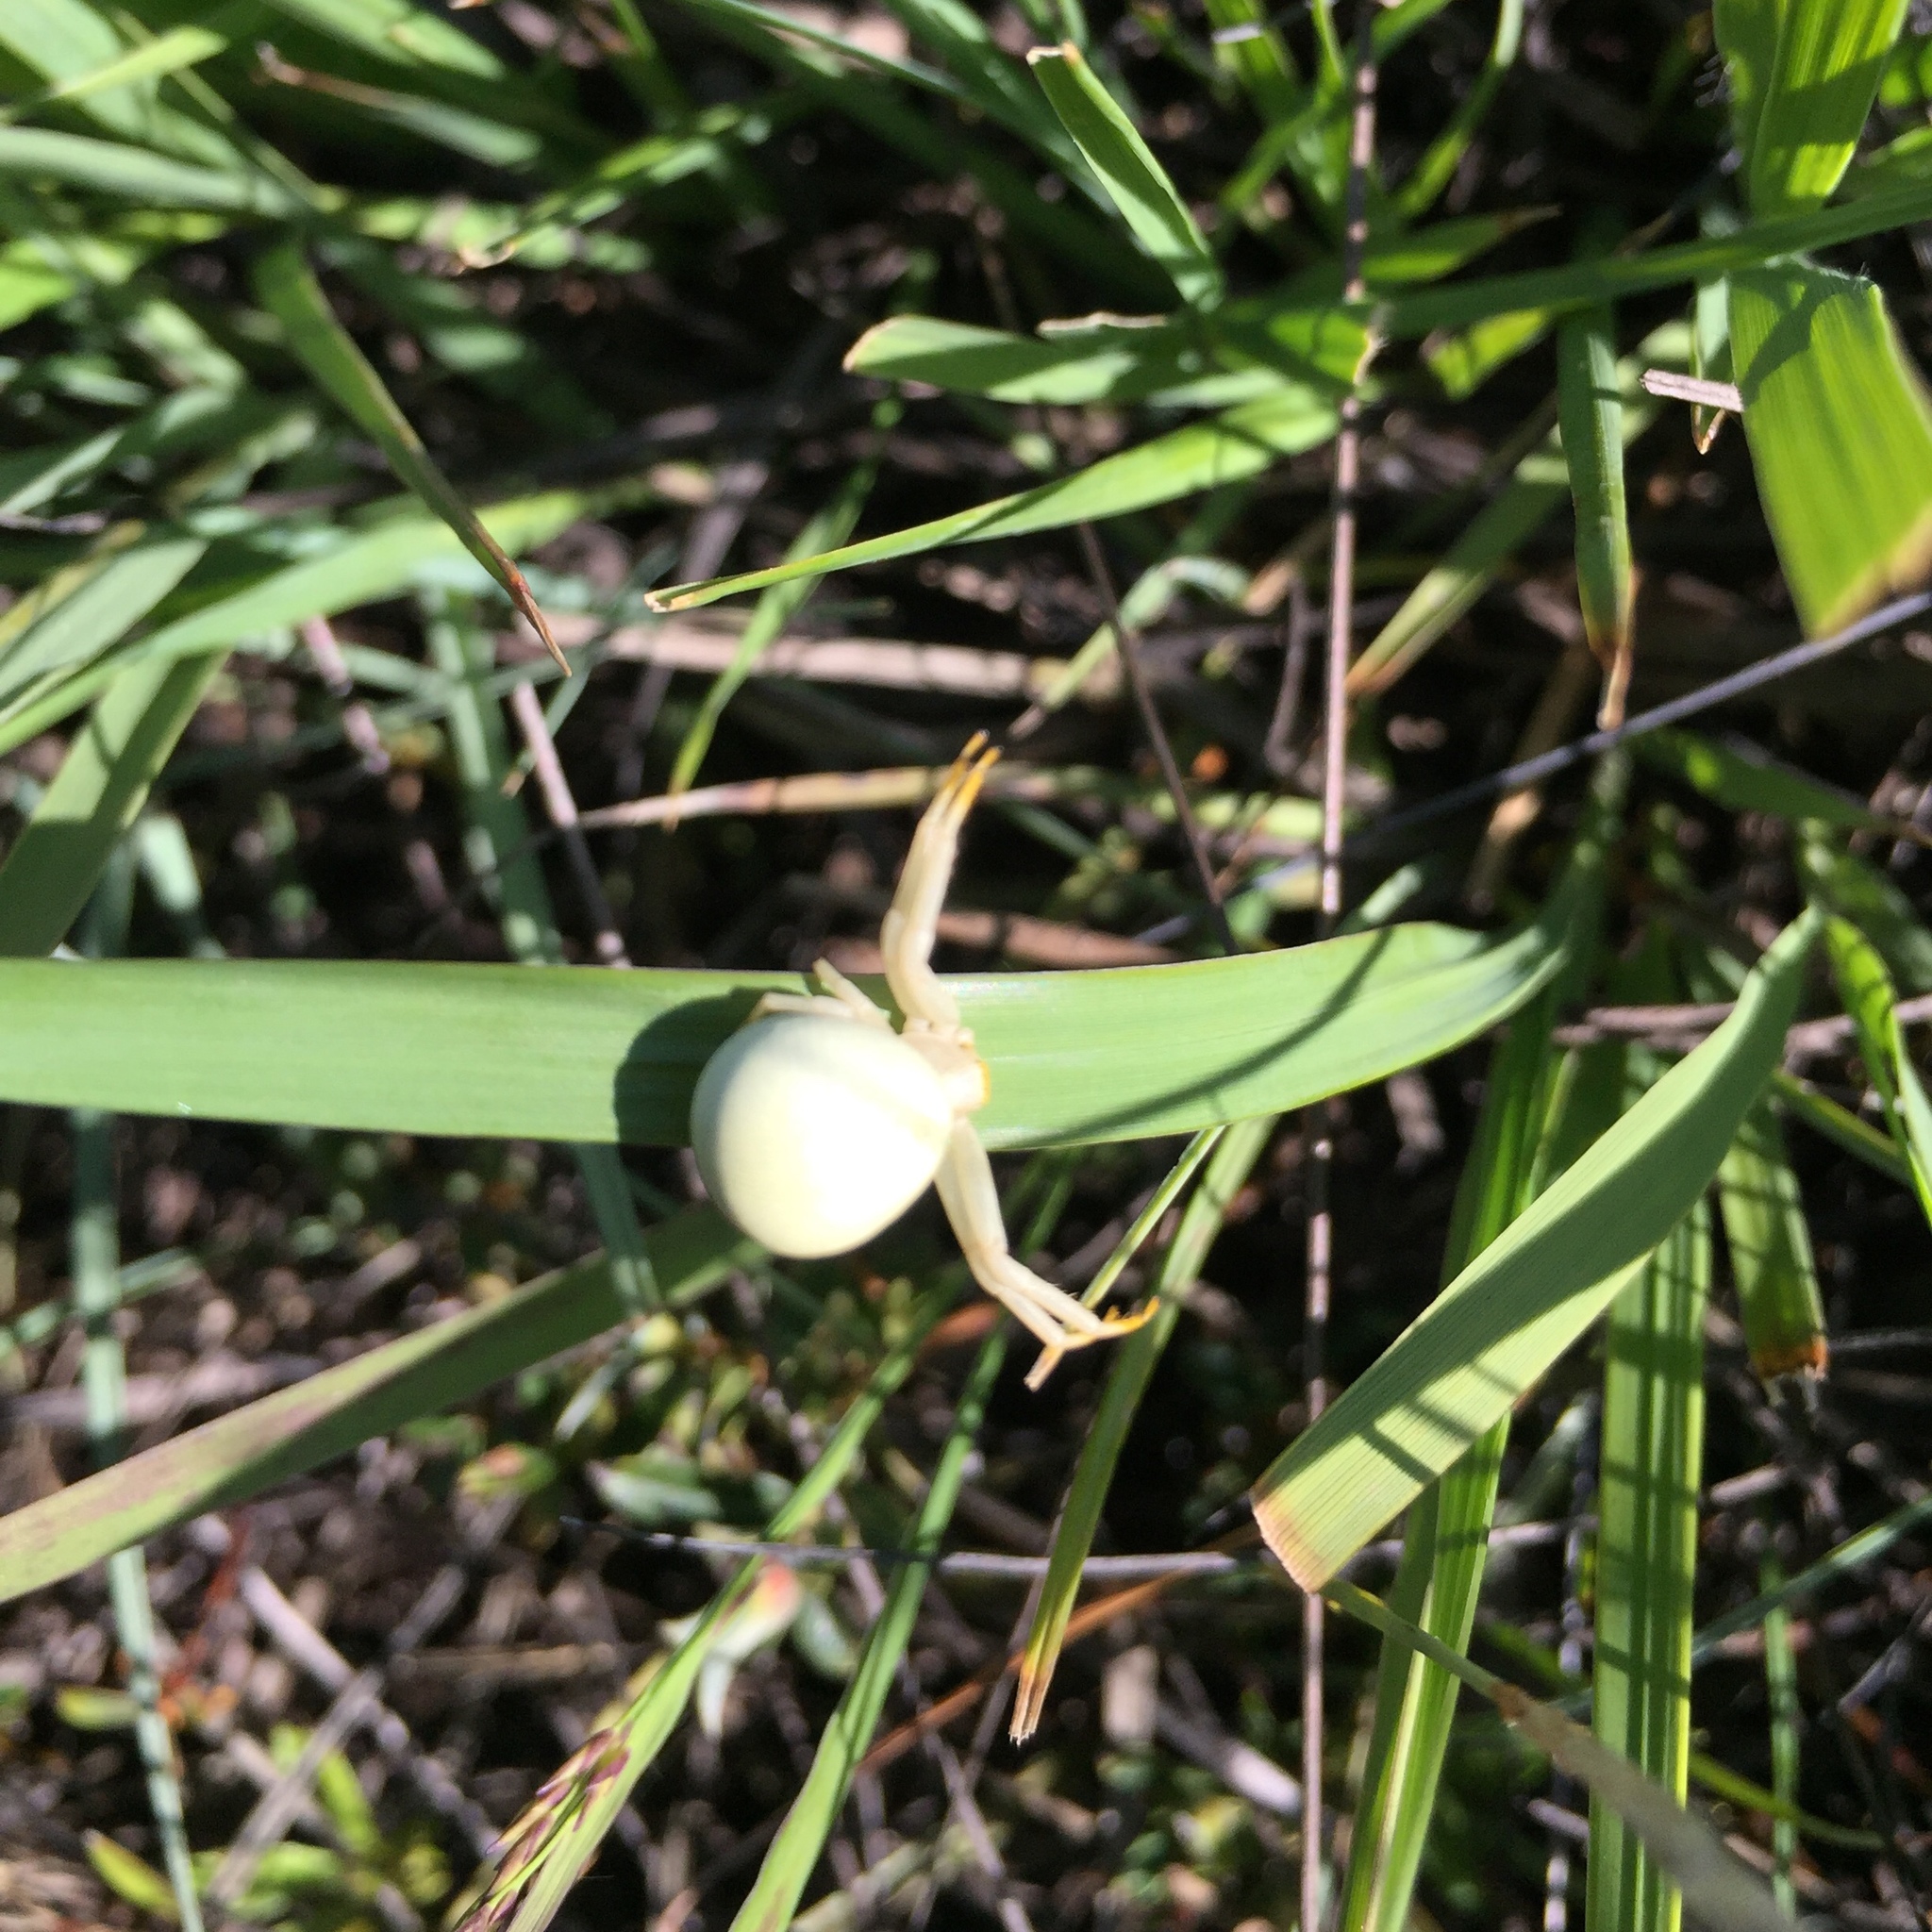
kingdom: Animalia
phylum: Arthropoda
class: Arachnida
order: Araneae
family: Thomisidae
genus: Misumena
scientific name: Misumena vatia
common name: Goldenrod crab spider
